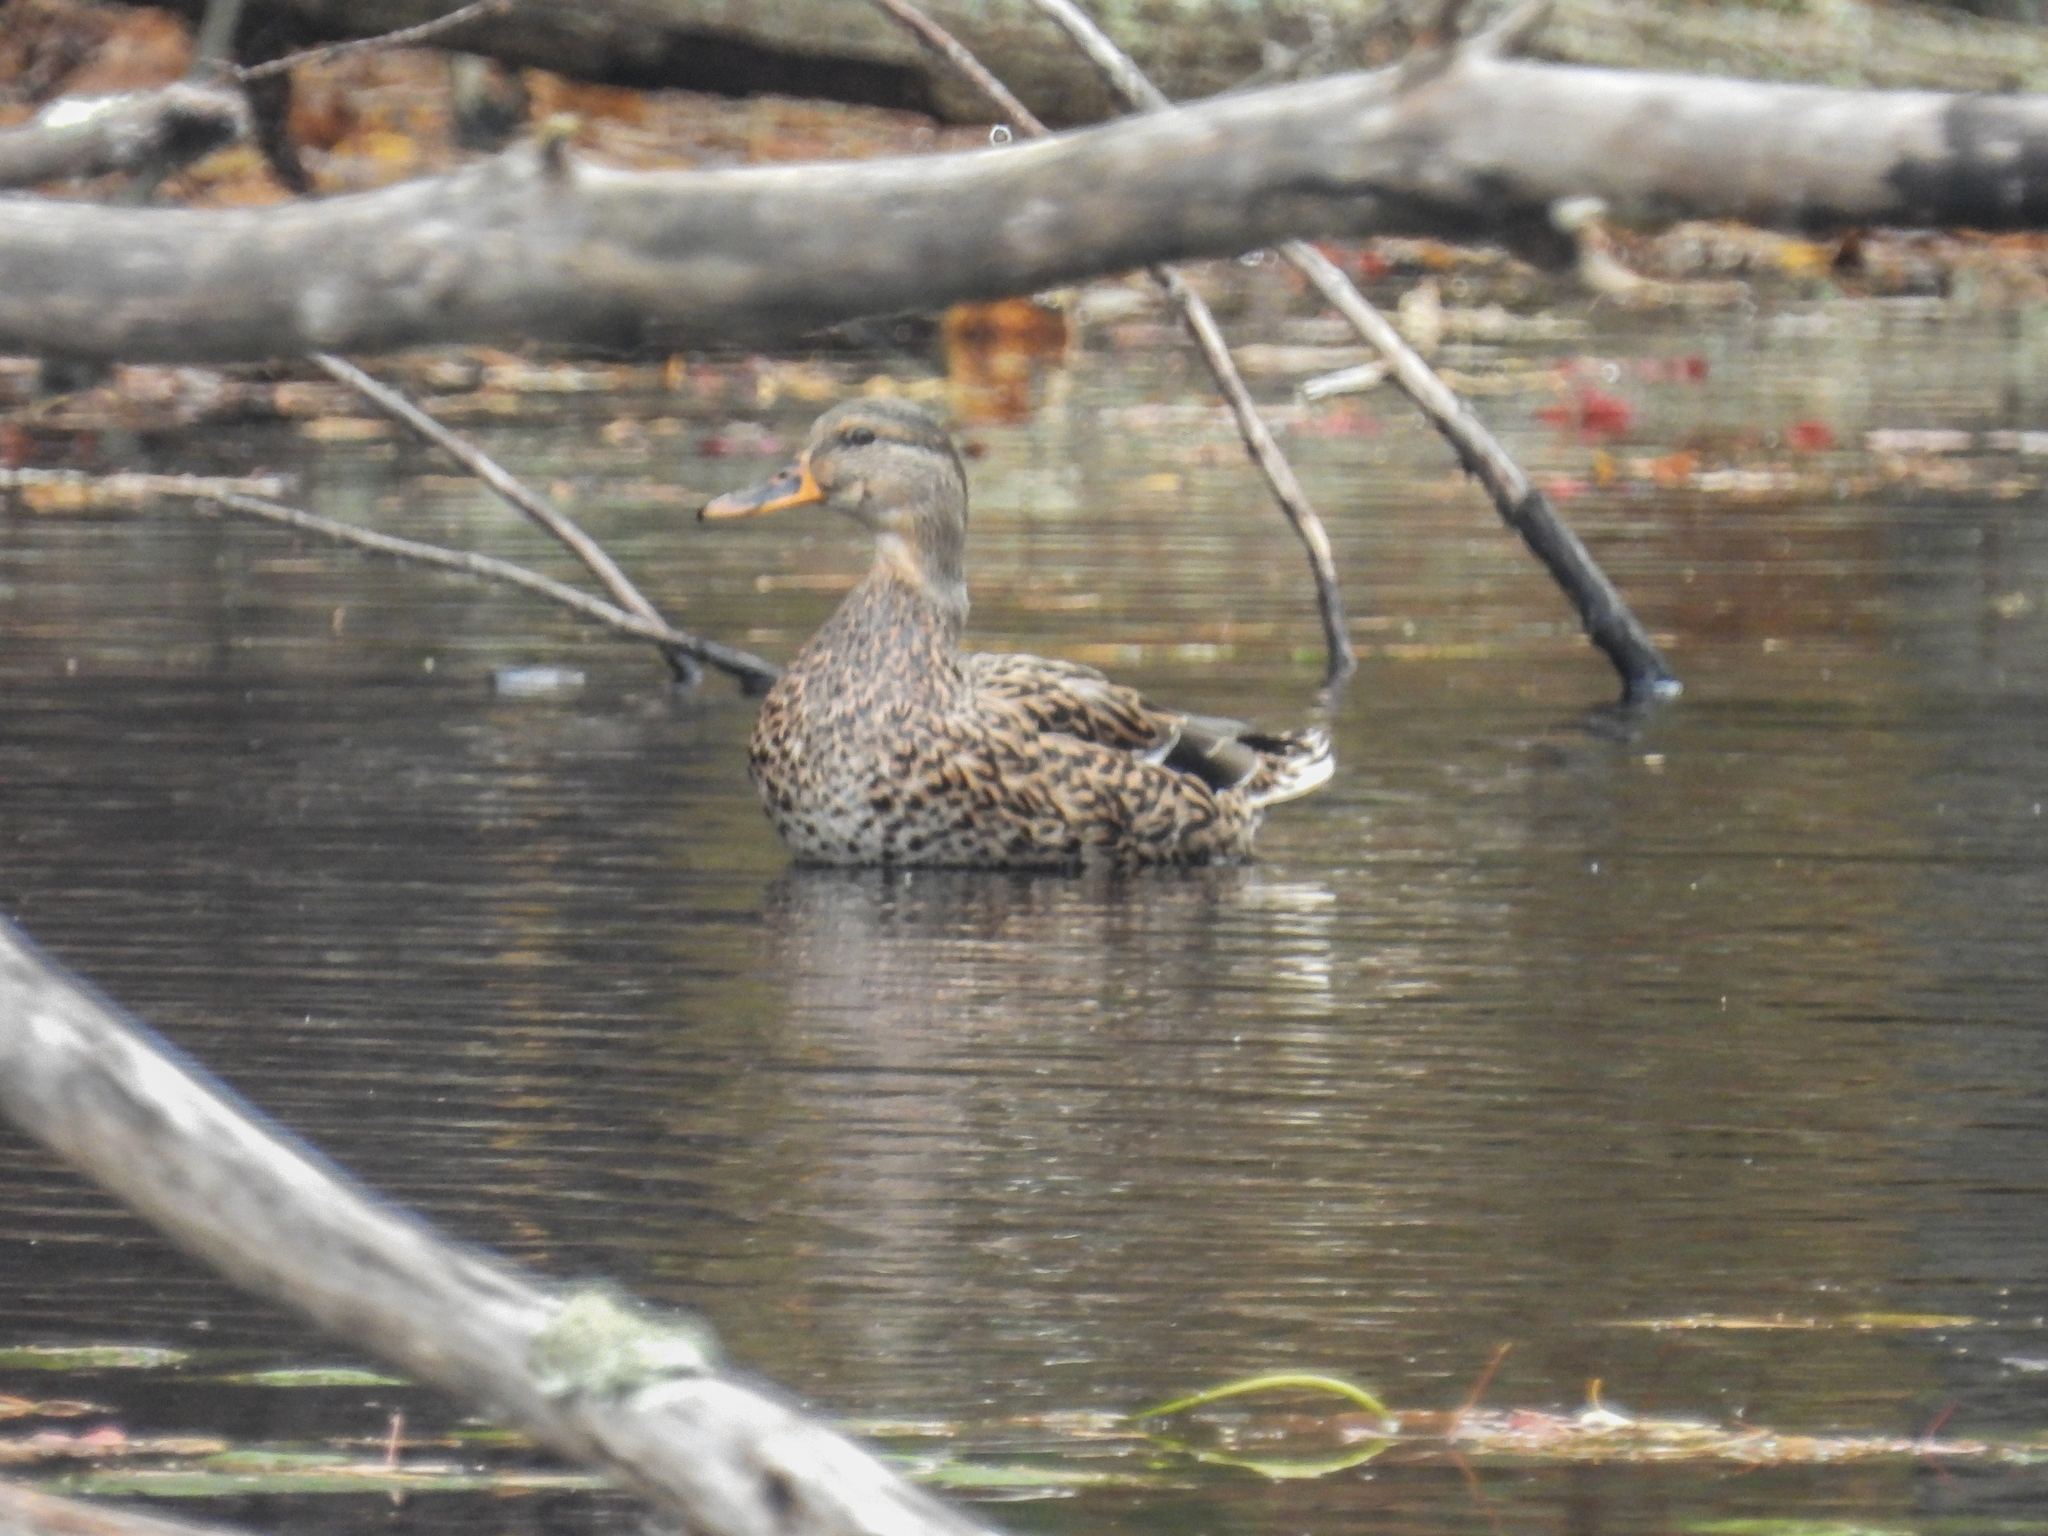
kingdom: Animalia
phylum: Chordata
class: Aves
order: Anseriformes
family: Anatidae
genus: Anas
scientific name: Anas platyrhynchos
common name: Mallard
